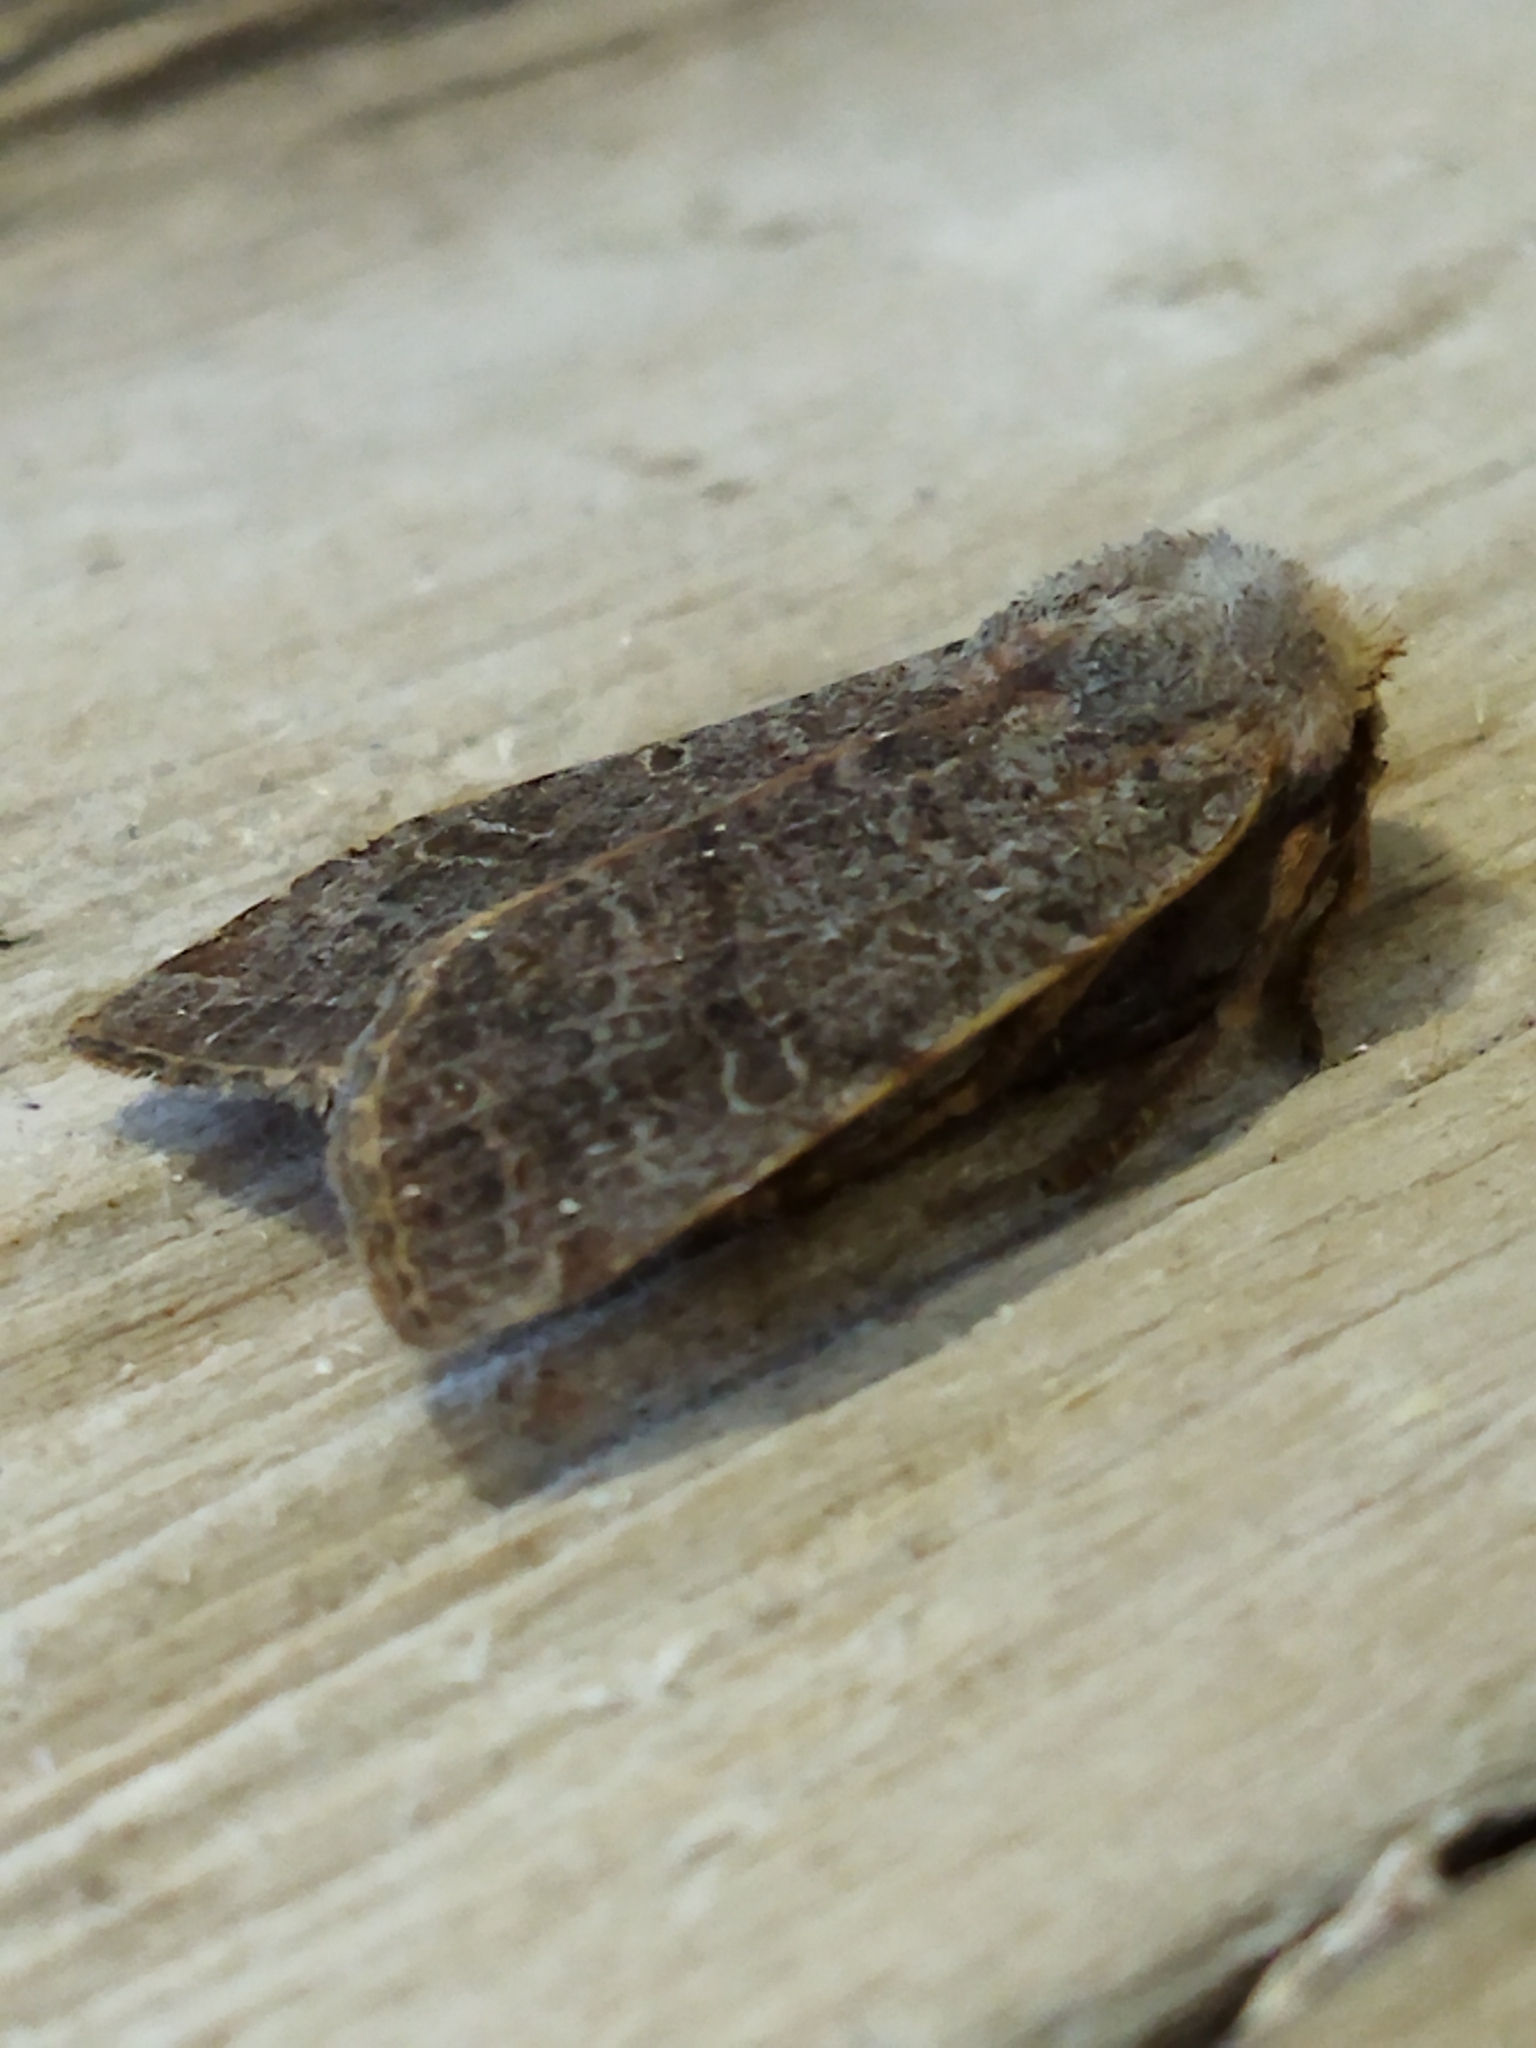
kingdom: Animalia
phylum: Arthropoda
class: Insecta
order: Lepidoptera
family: Noctuidae
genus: Agrochola
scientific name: Agrochola lychnidis
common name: Beaded chestnut
